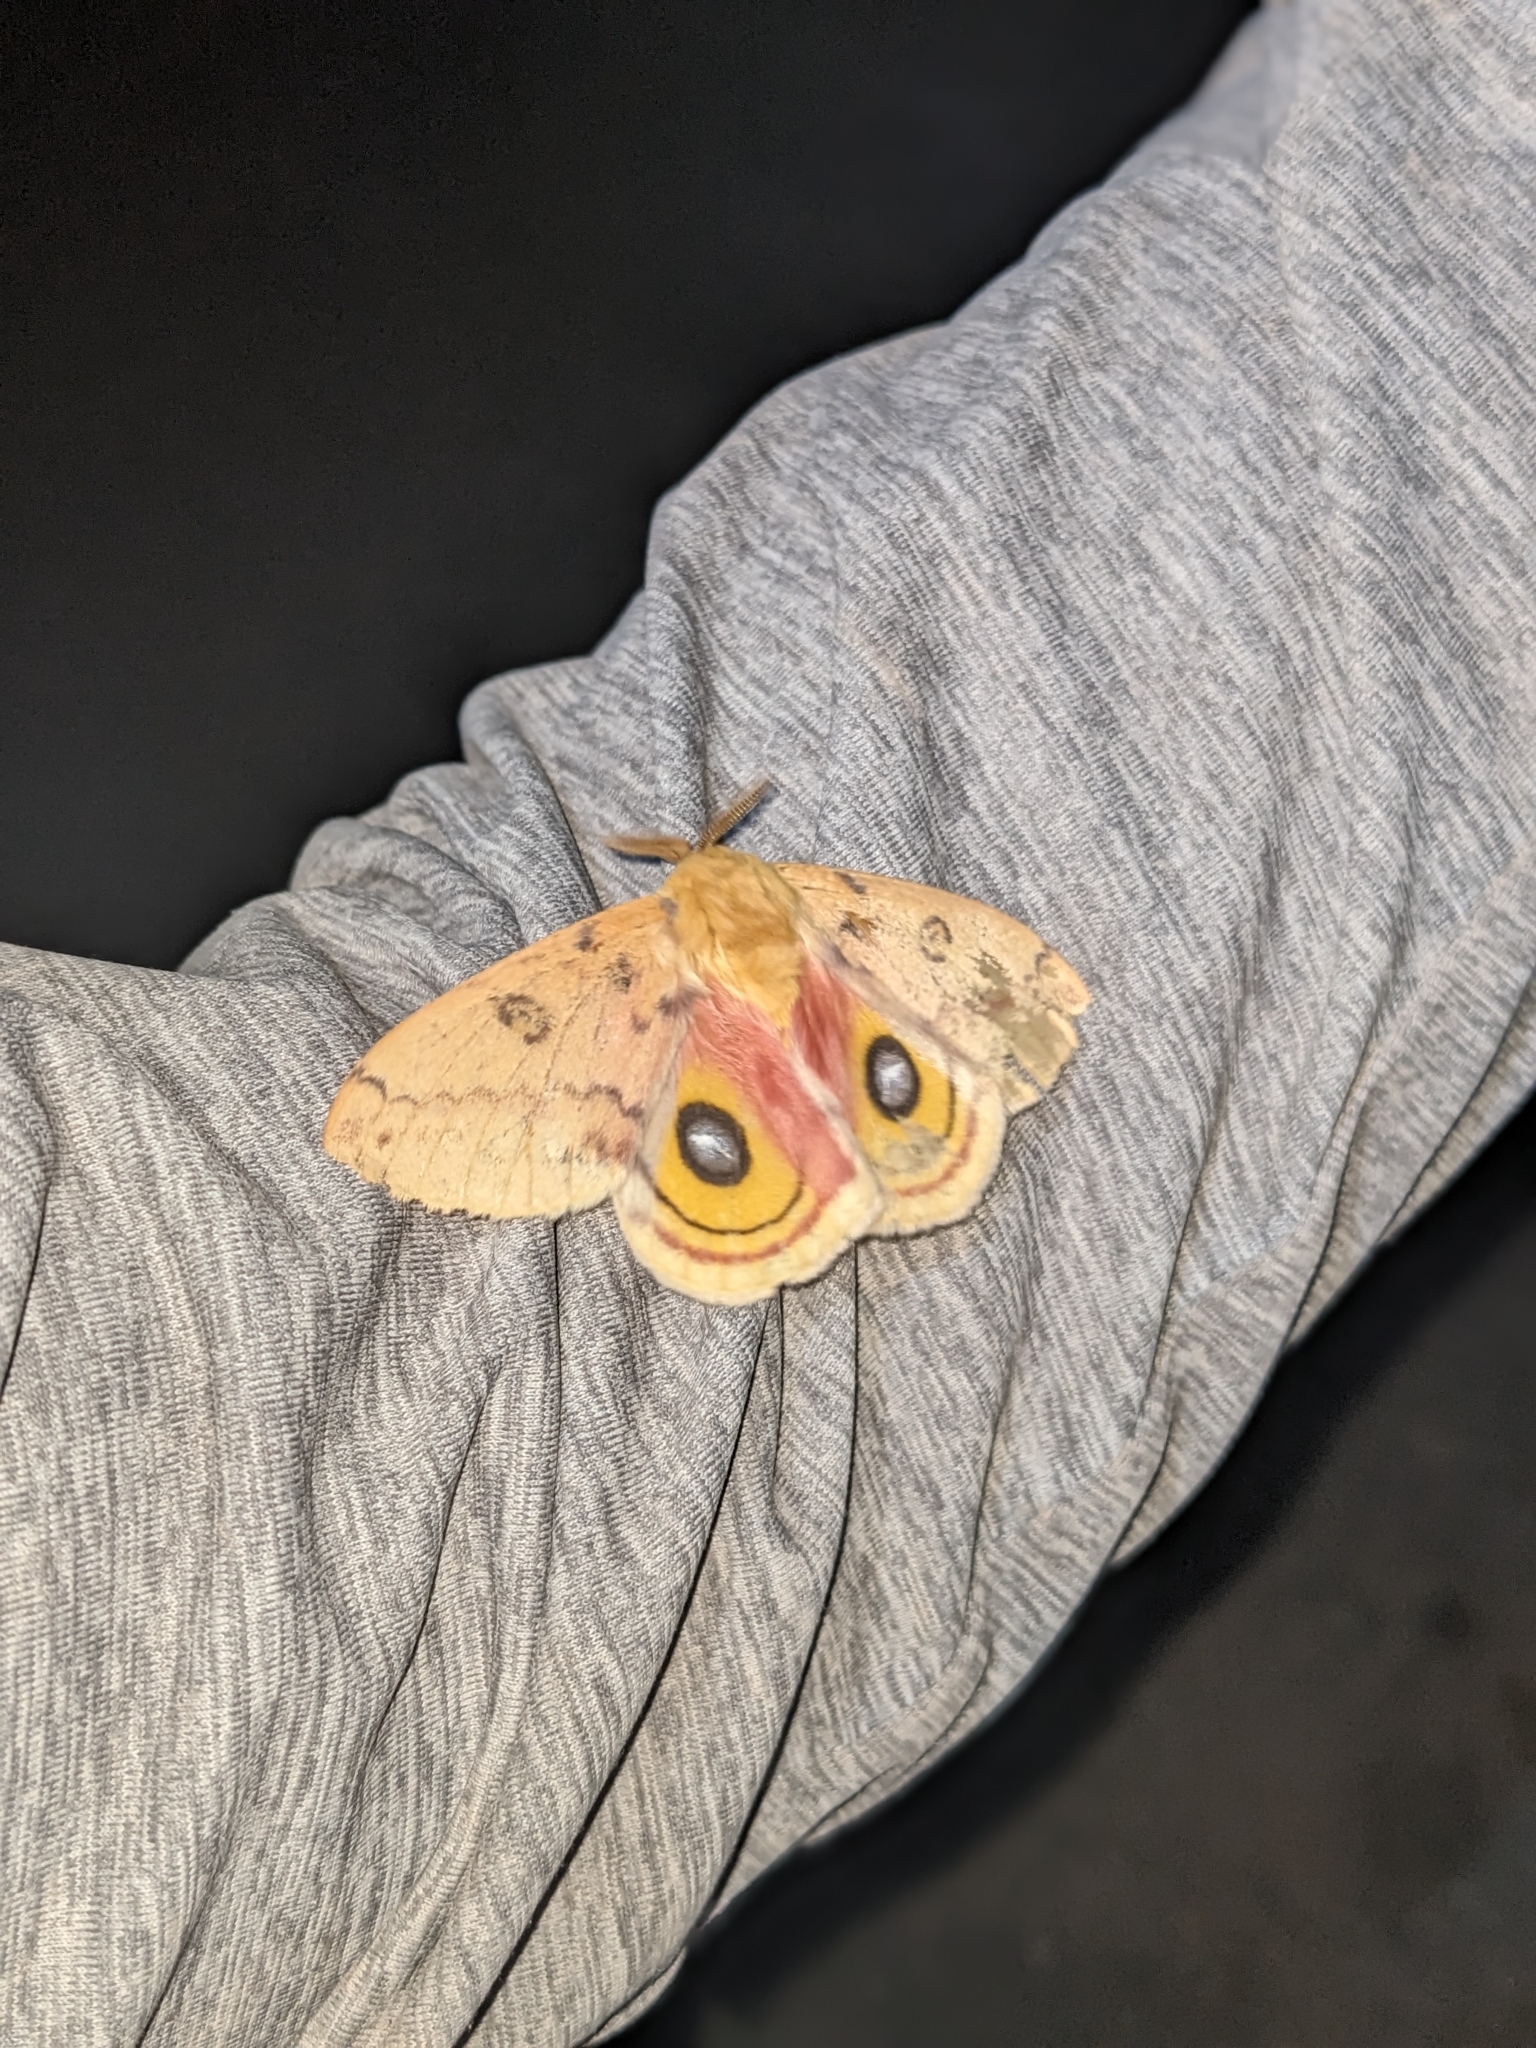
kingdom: Animalia
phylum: Arthropoda
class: Insecta
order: Lepidoptera
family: Saturniidae
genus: Automeris
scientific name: Automeris io
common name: Io moth
